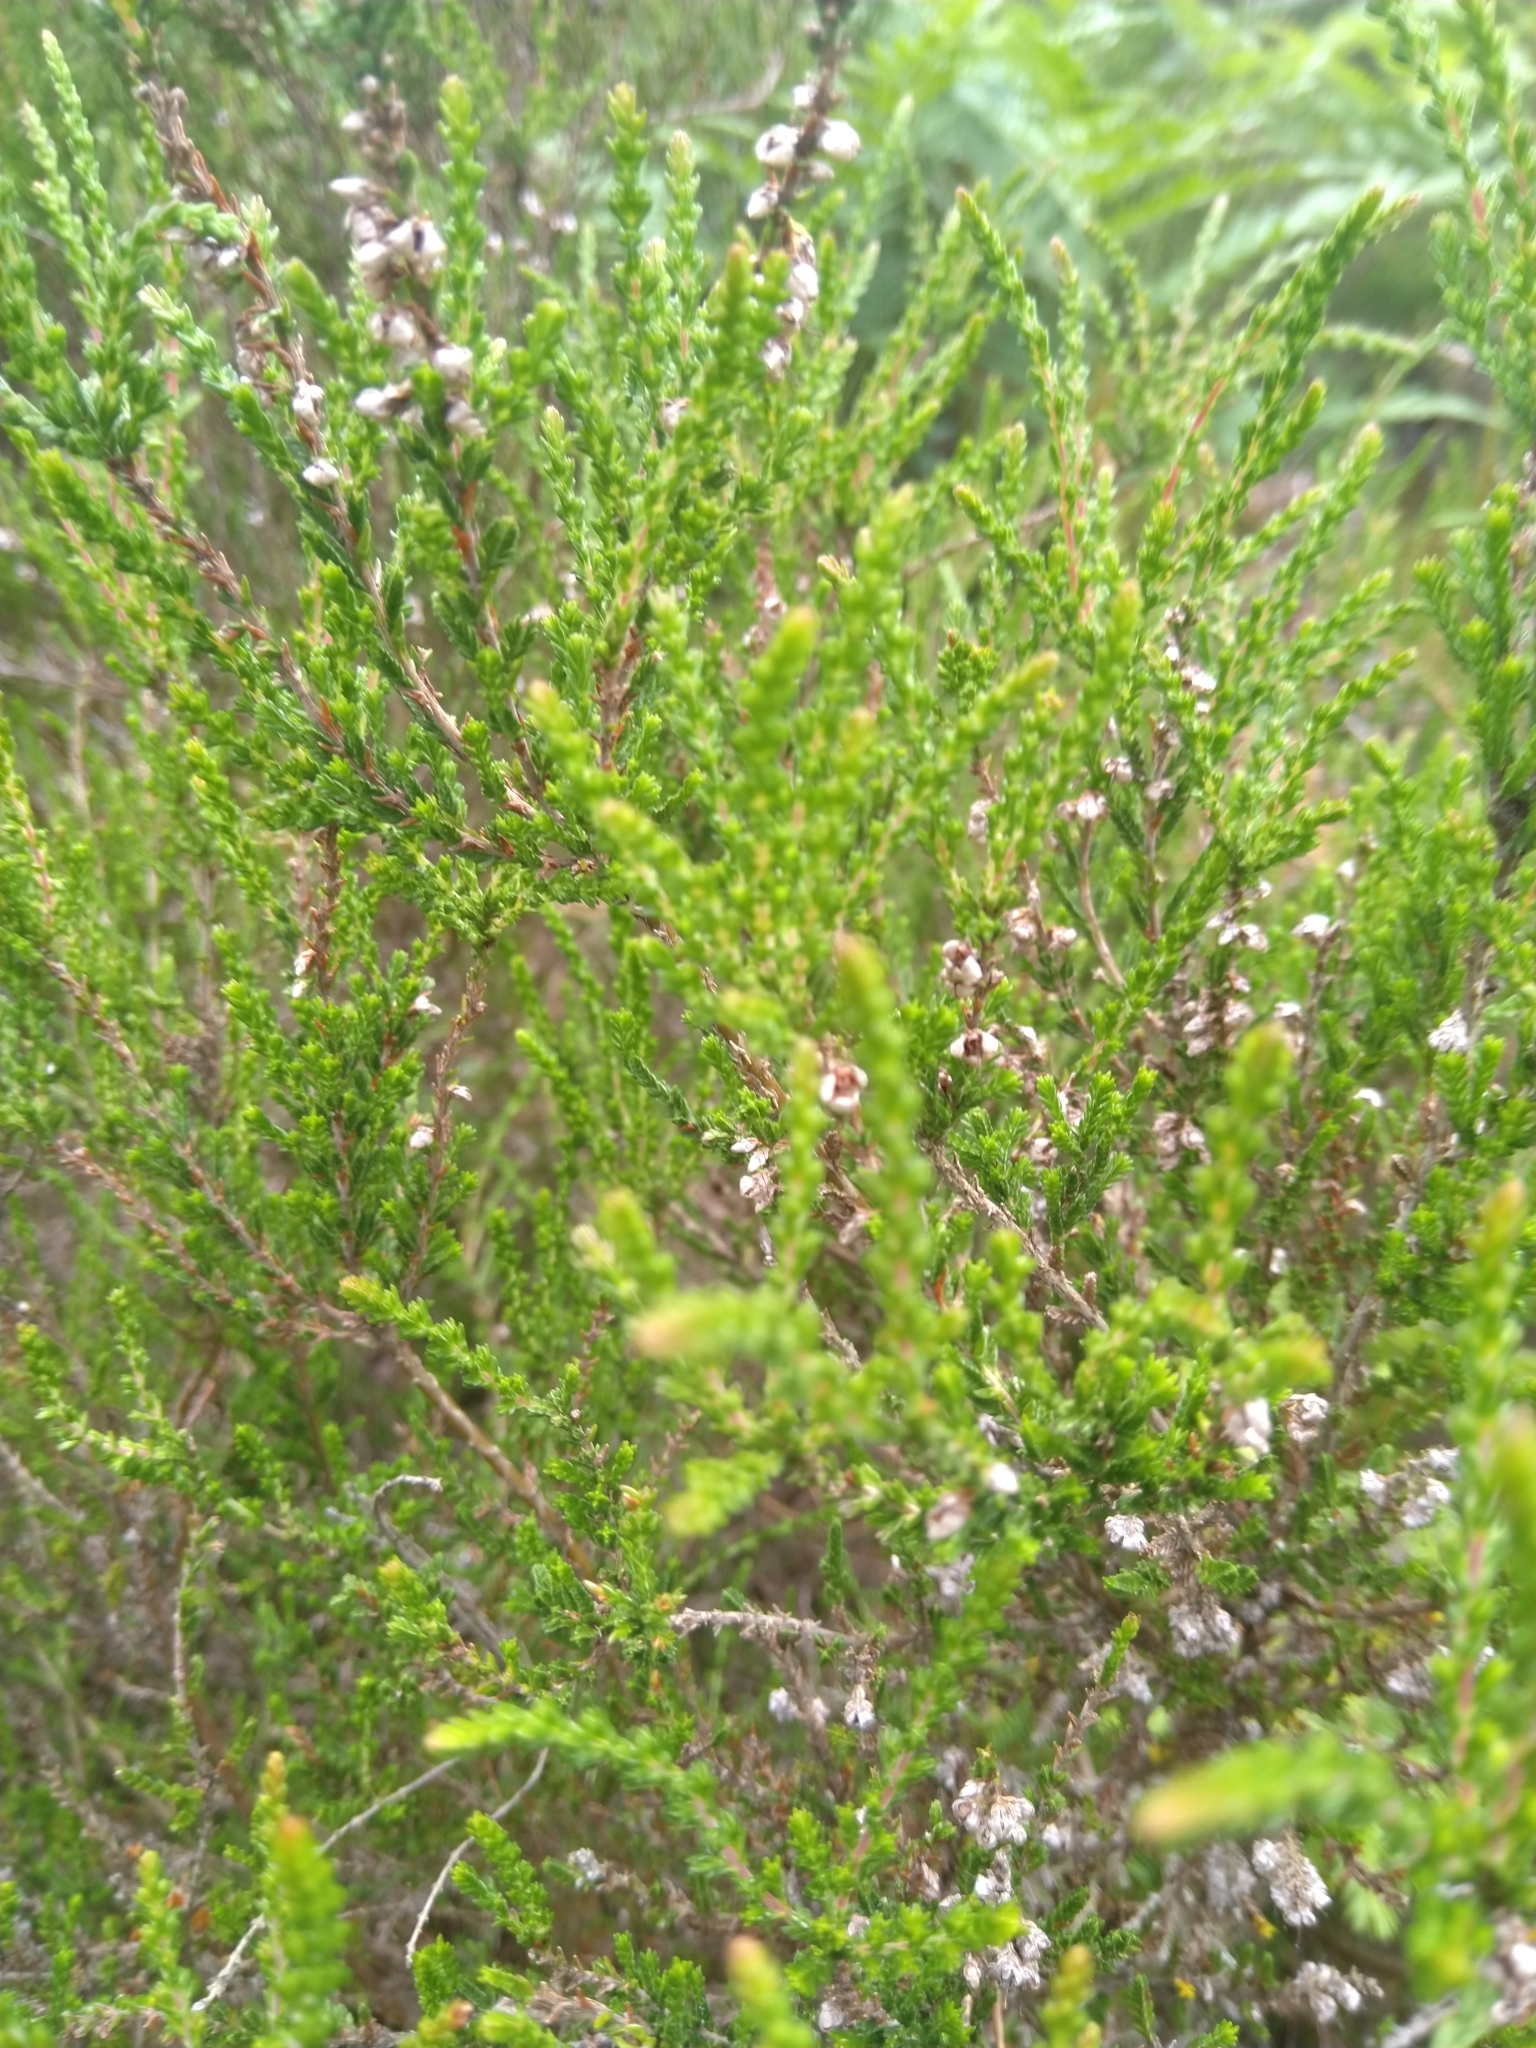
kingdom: Plantae
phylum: Tracheophyta
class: Magnoliopsida
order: Ericales
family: Ericaceae
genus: Calluna
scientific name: Calluna vulgaris
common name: Heather
